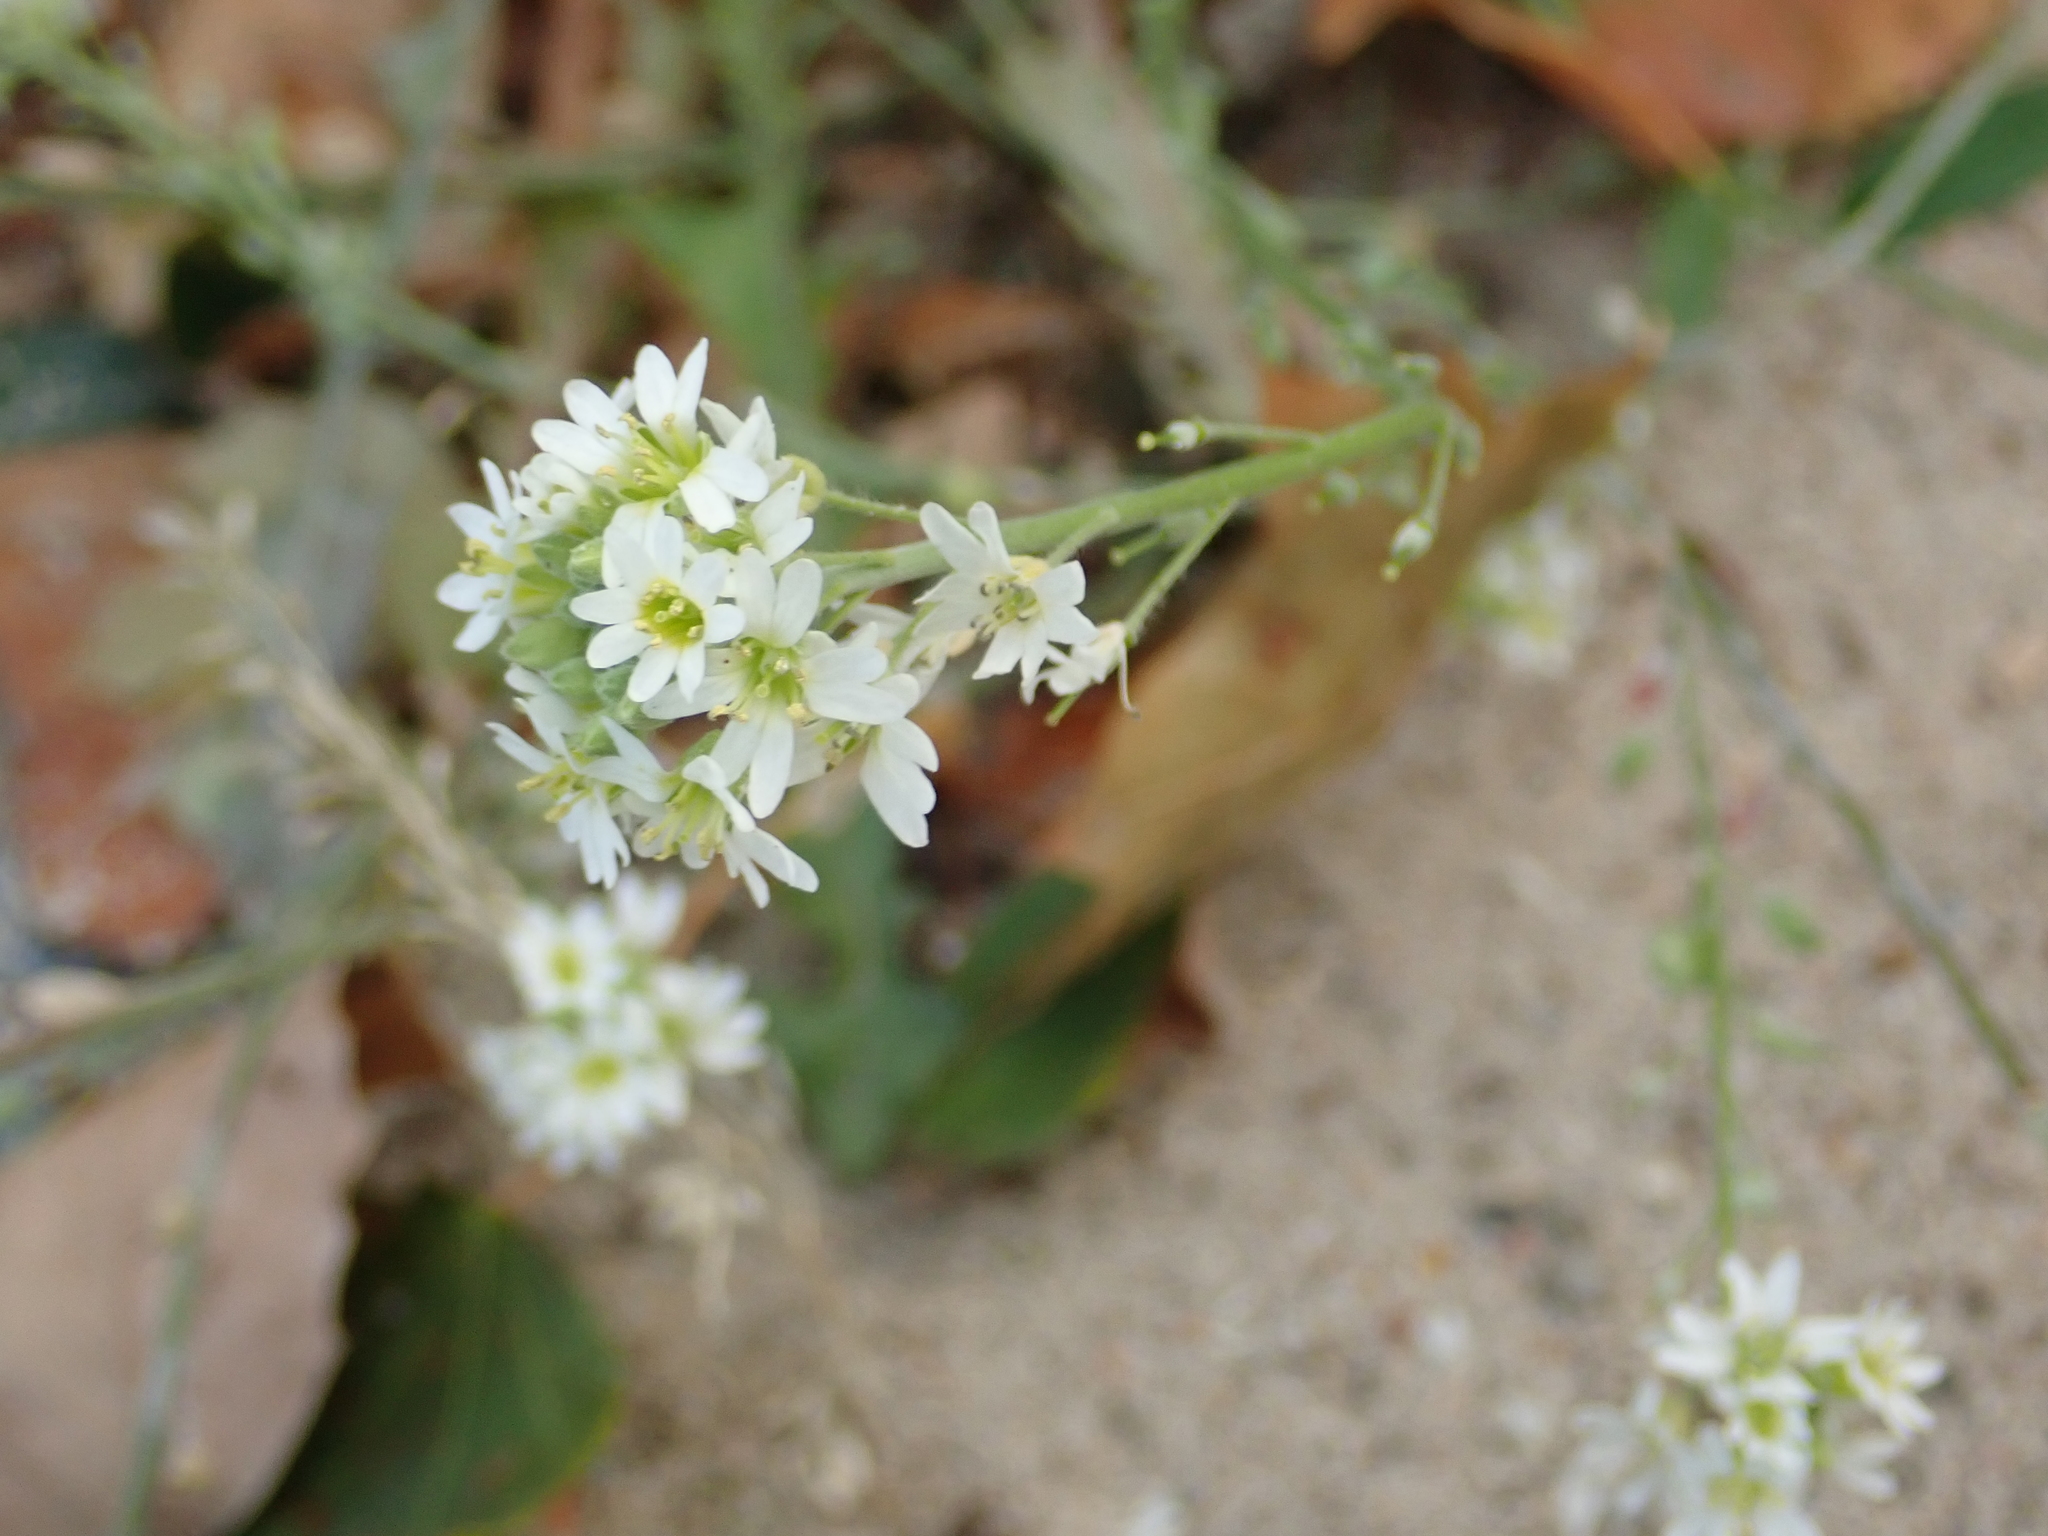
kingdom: Plantae
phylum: Tracheophyta
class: Magnoliopsida
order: Brassicales
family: Brassicaceae
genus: Berteroa
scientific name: Berteroa incana
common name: Hoary alison
